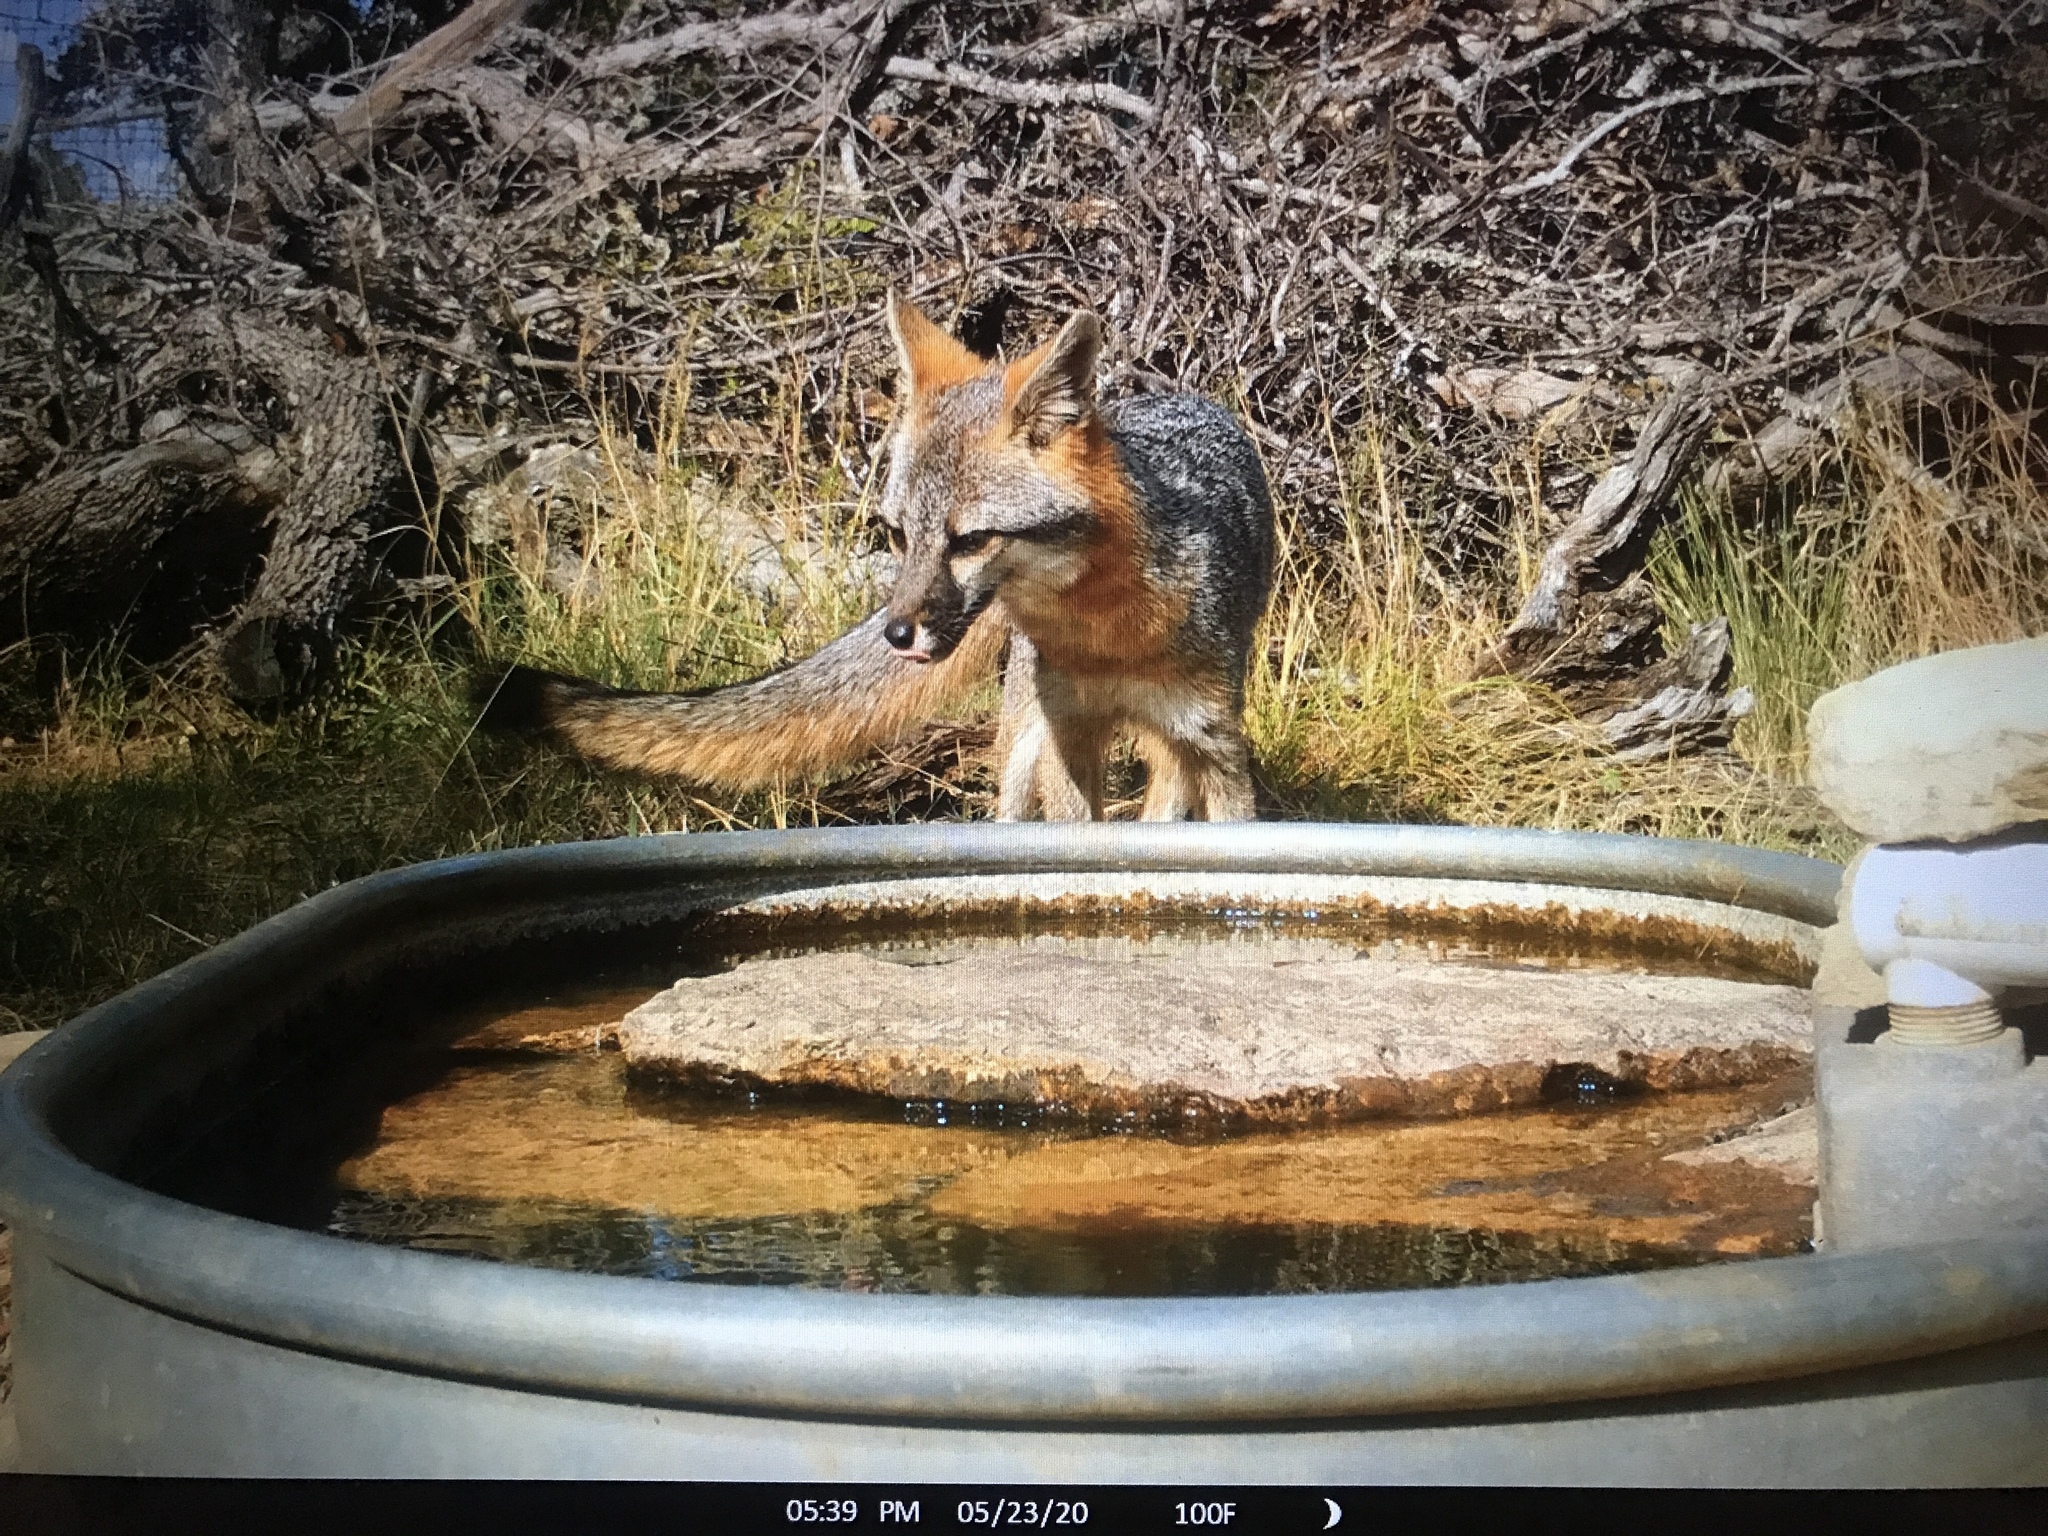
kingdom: Animalia
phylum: Chordata
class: Mammalia
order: Carnivora
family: Canidae
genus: Urocyon
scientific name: Urocyon cinereoargenteus
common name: Gray fox
